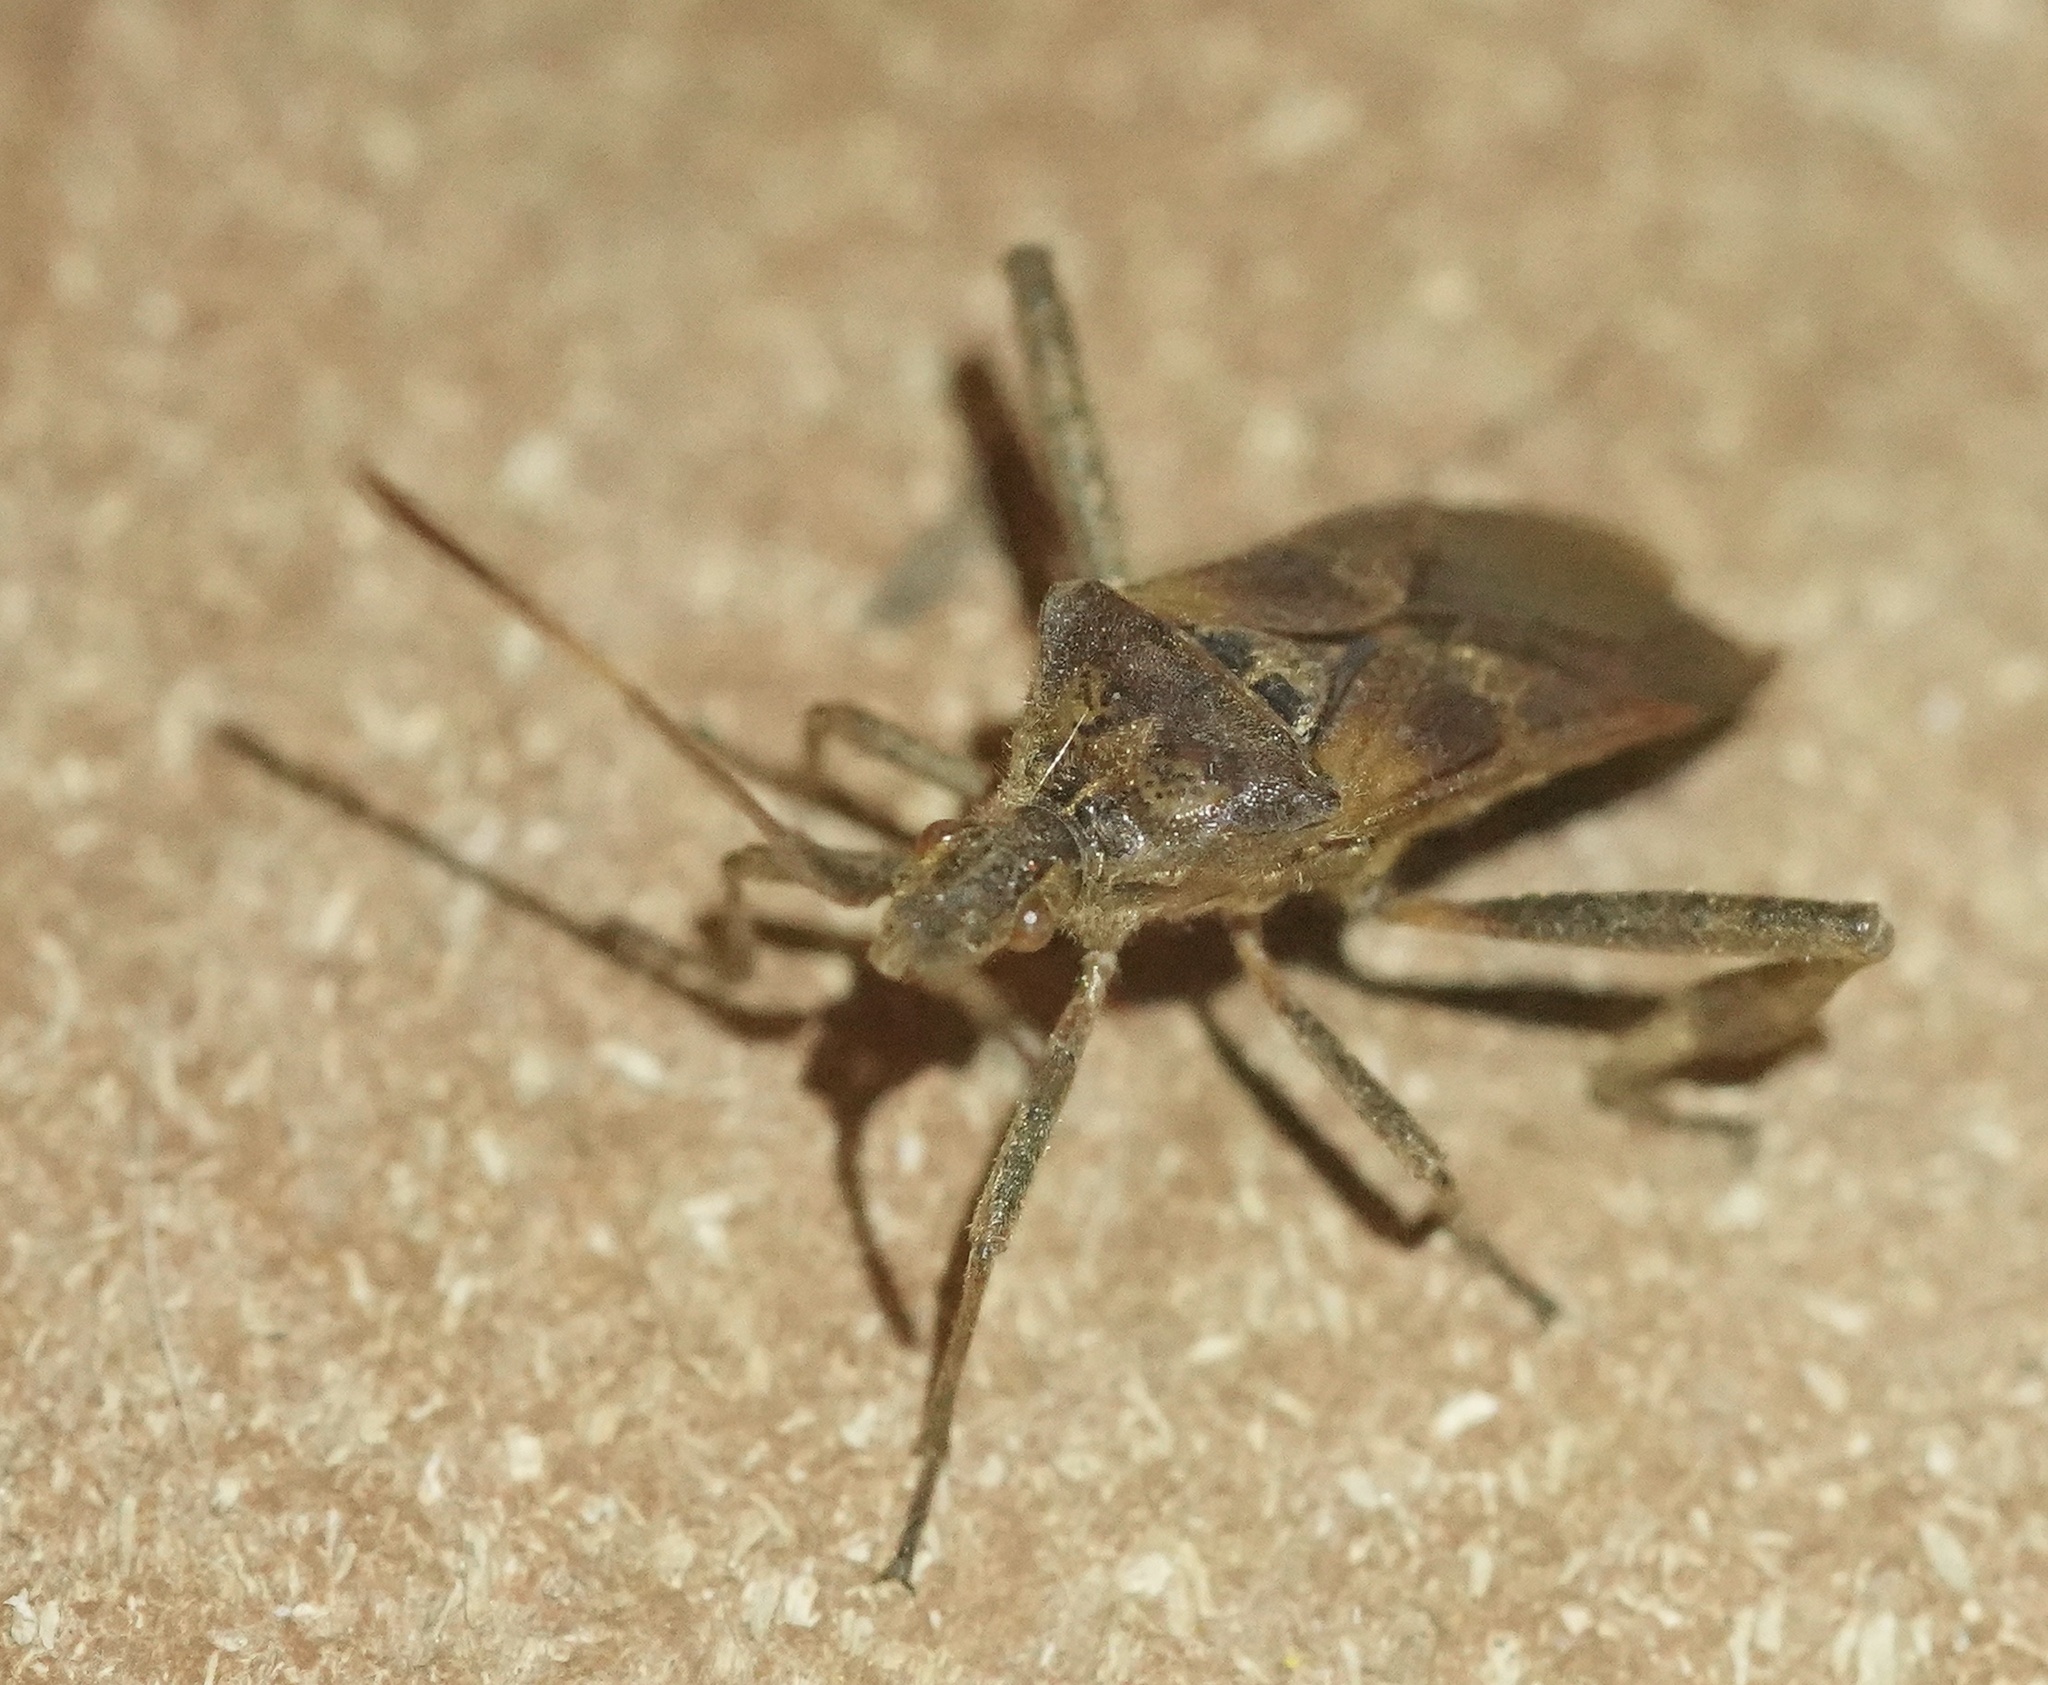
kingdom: Animalia
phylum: Arthropoda
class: Insecta
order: Hemiptera
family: Coreidae
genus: Leptoglossus
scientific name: Leptoglossus occidentalis
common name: Western conifer-seed bug
